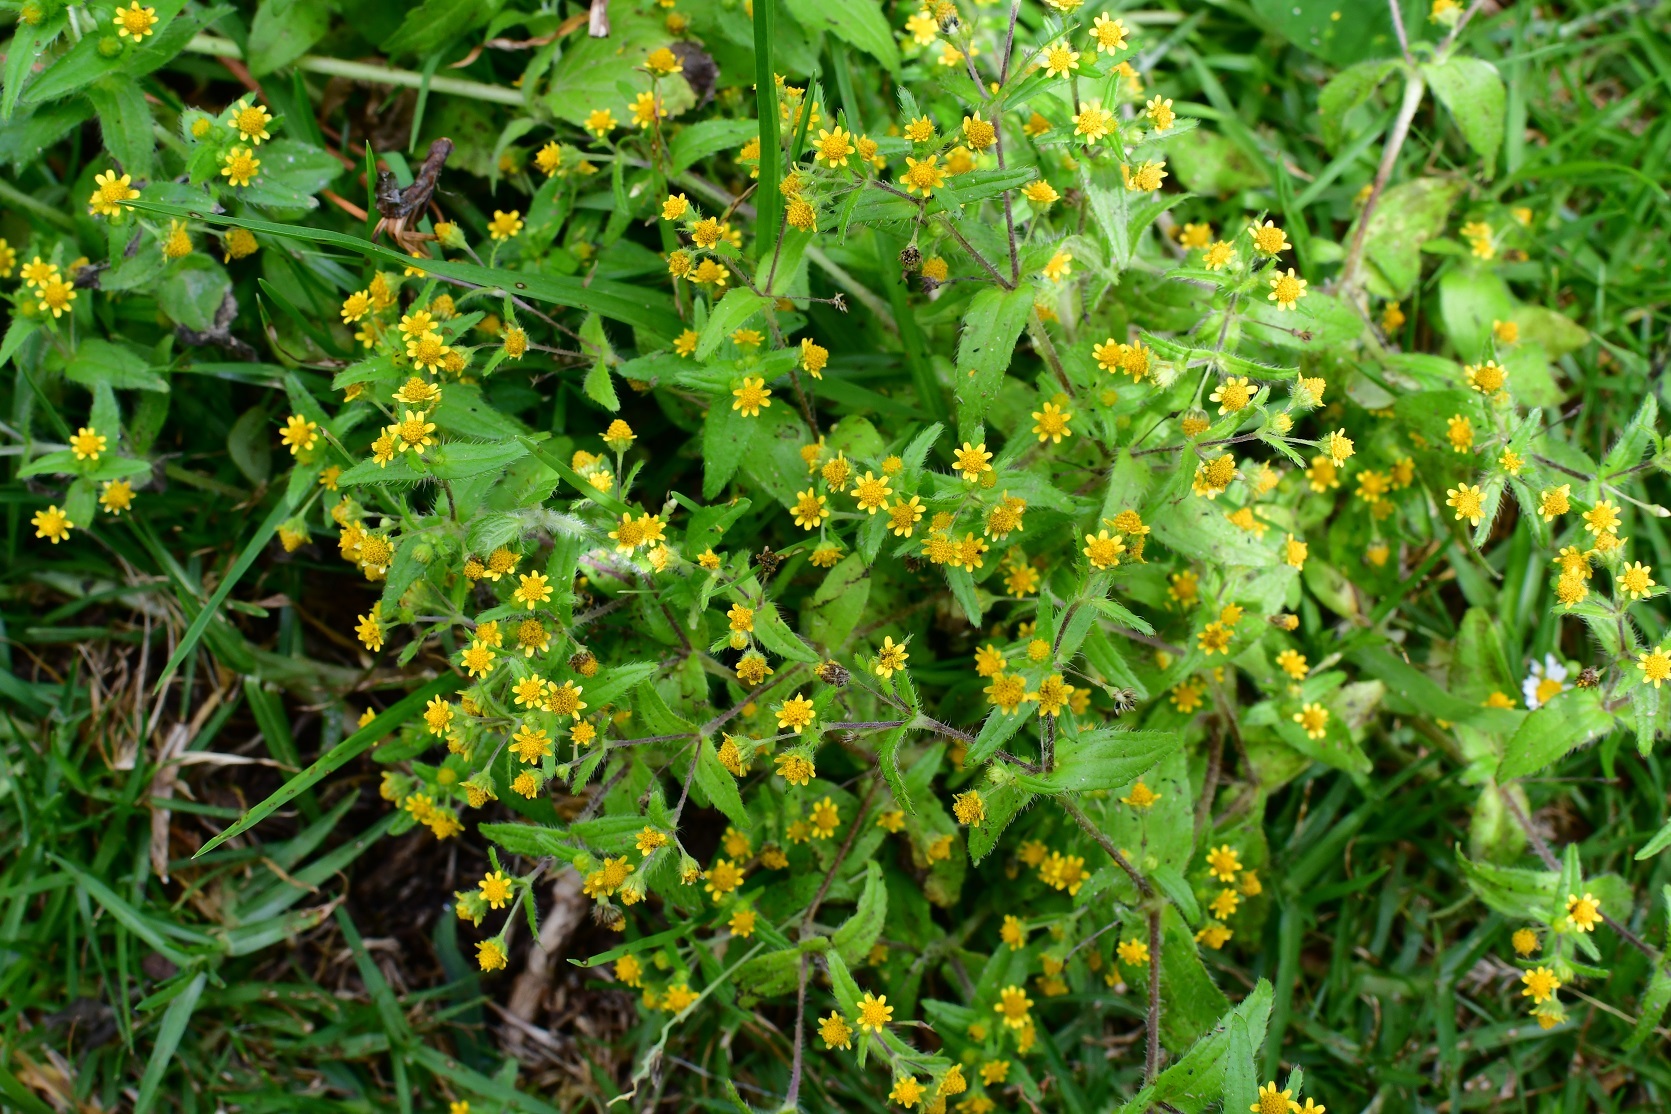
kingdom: Plantae
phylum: Tracheophyta
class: Magnoliopsida
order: Asterales
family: Asteraceae
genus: Jaegeria
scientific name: Jaegeria hirta
